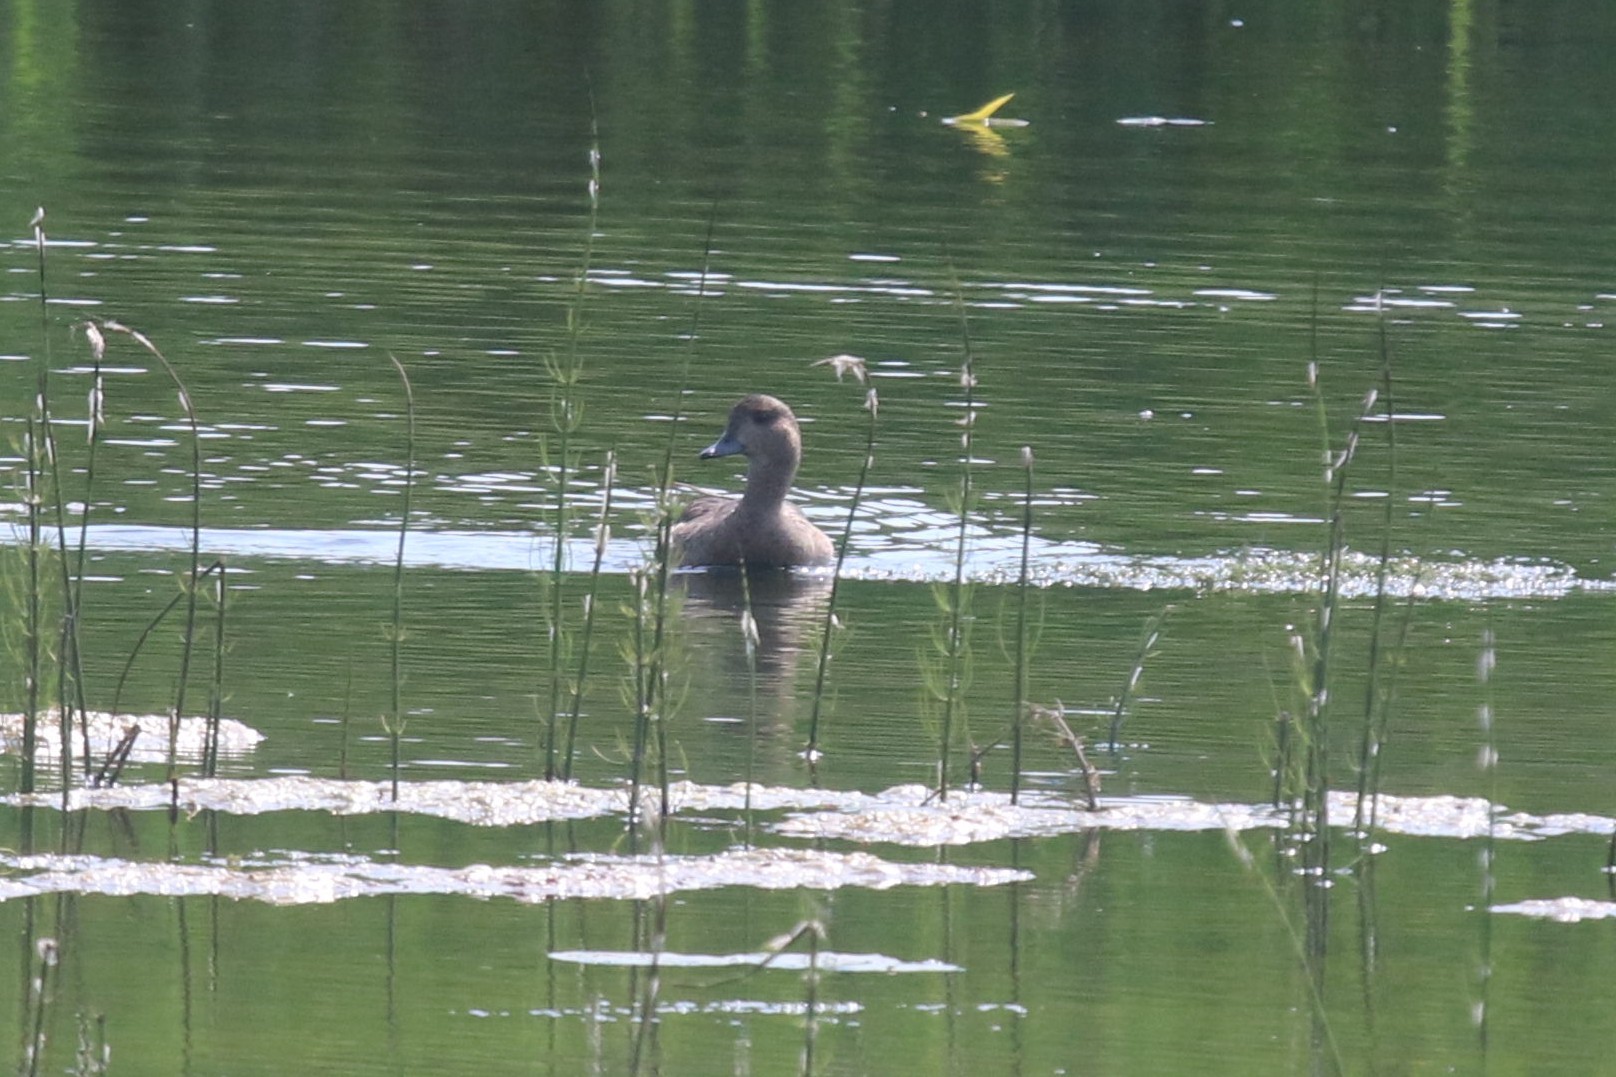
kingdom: Animalia
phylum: Chordata
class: Aves
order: Anseriformes
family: Anatidae
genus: Mareca
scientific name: Mareca penelope
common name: Eurasian wigeon
